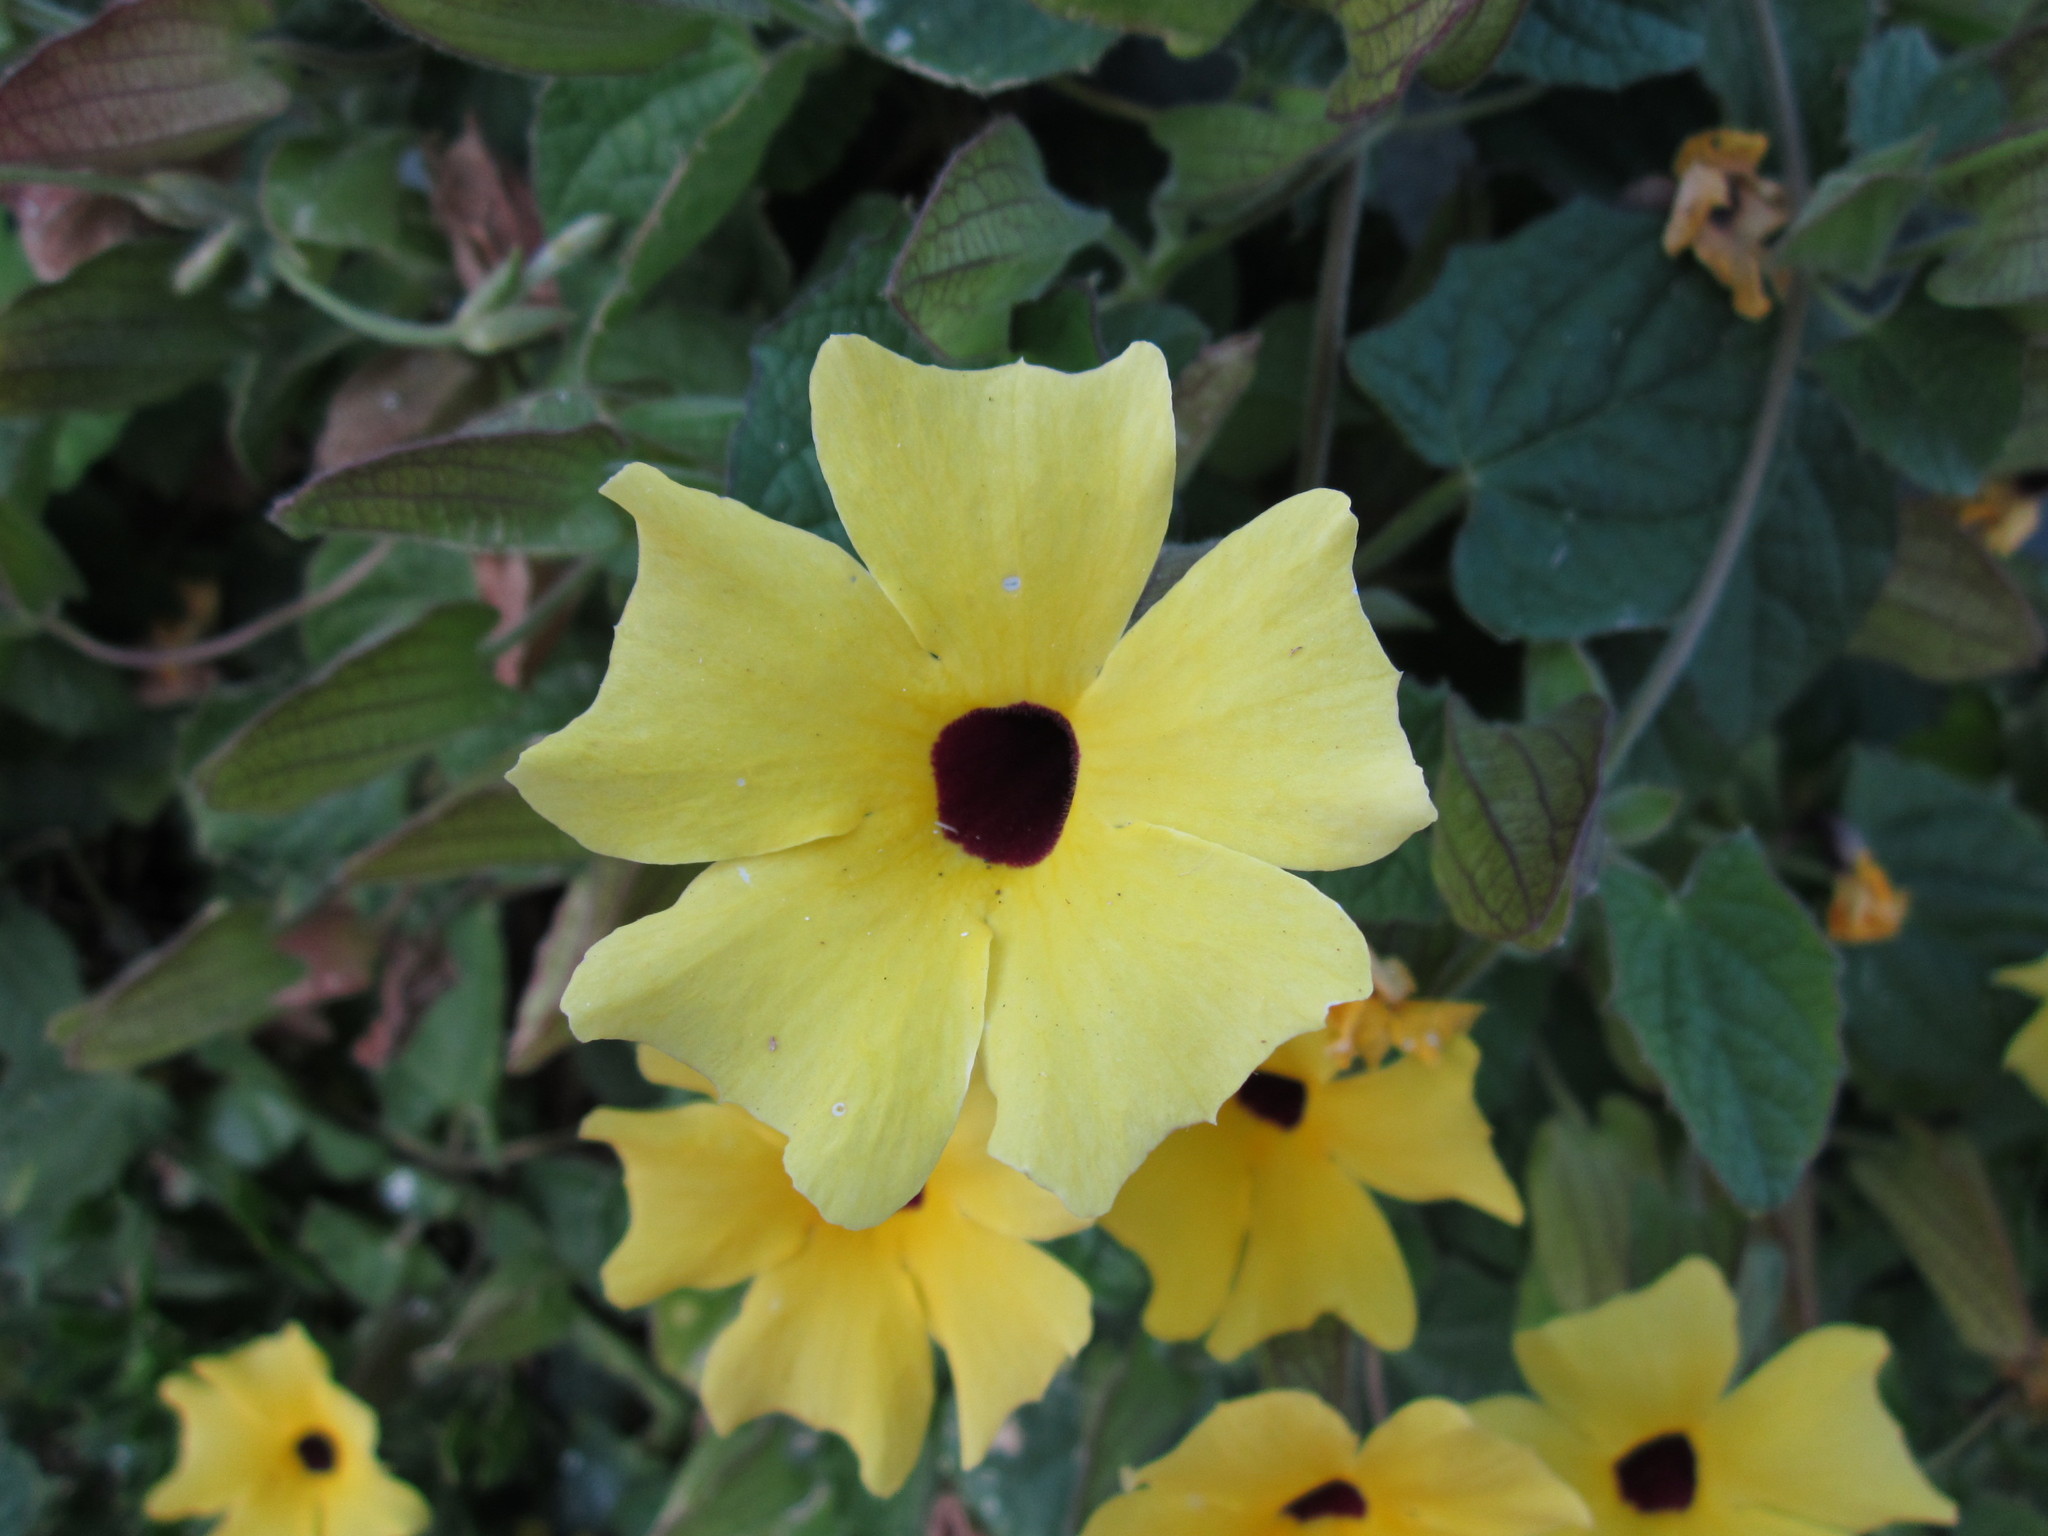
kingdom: Plantae
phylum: Tracheophyta
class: Magnoliopsida
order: Lamiales
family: Acanthaceae
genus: Thunbergia
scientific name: Thunbergia alata
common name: Blackeyed susan vine
